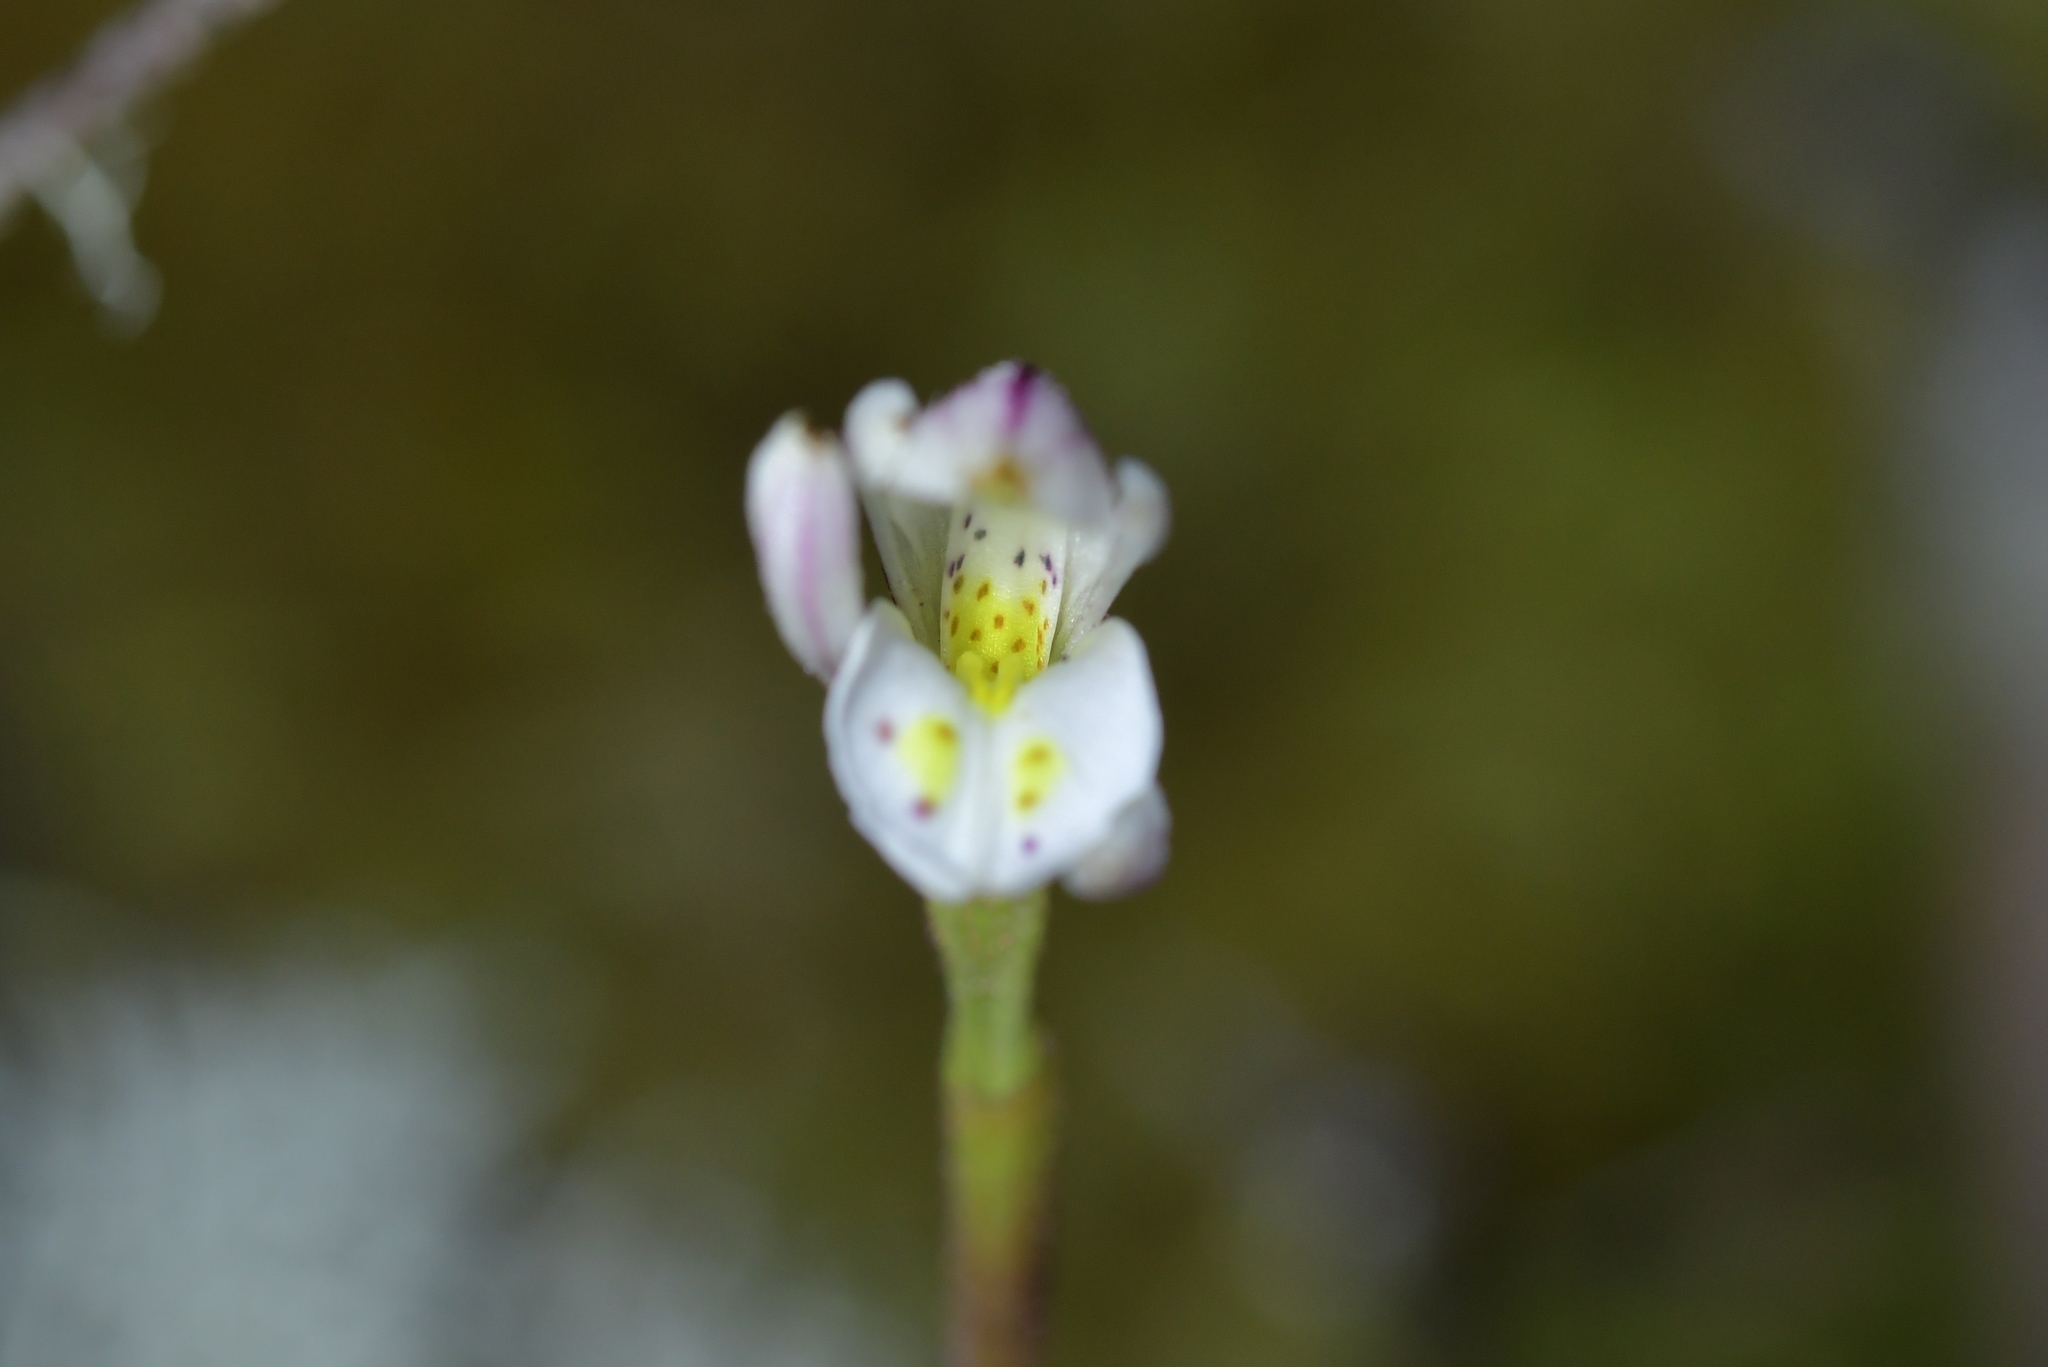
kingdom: Plantae
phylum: Tracheophyta
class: Liliopsida
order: Asparagales
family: Orchidaceae
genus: Aporostylis
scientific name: Aporostylis bifolia
